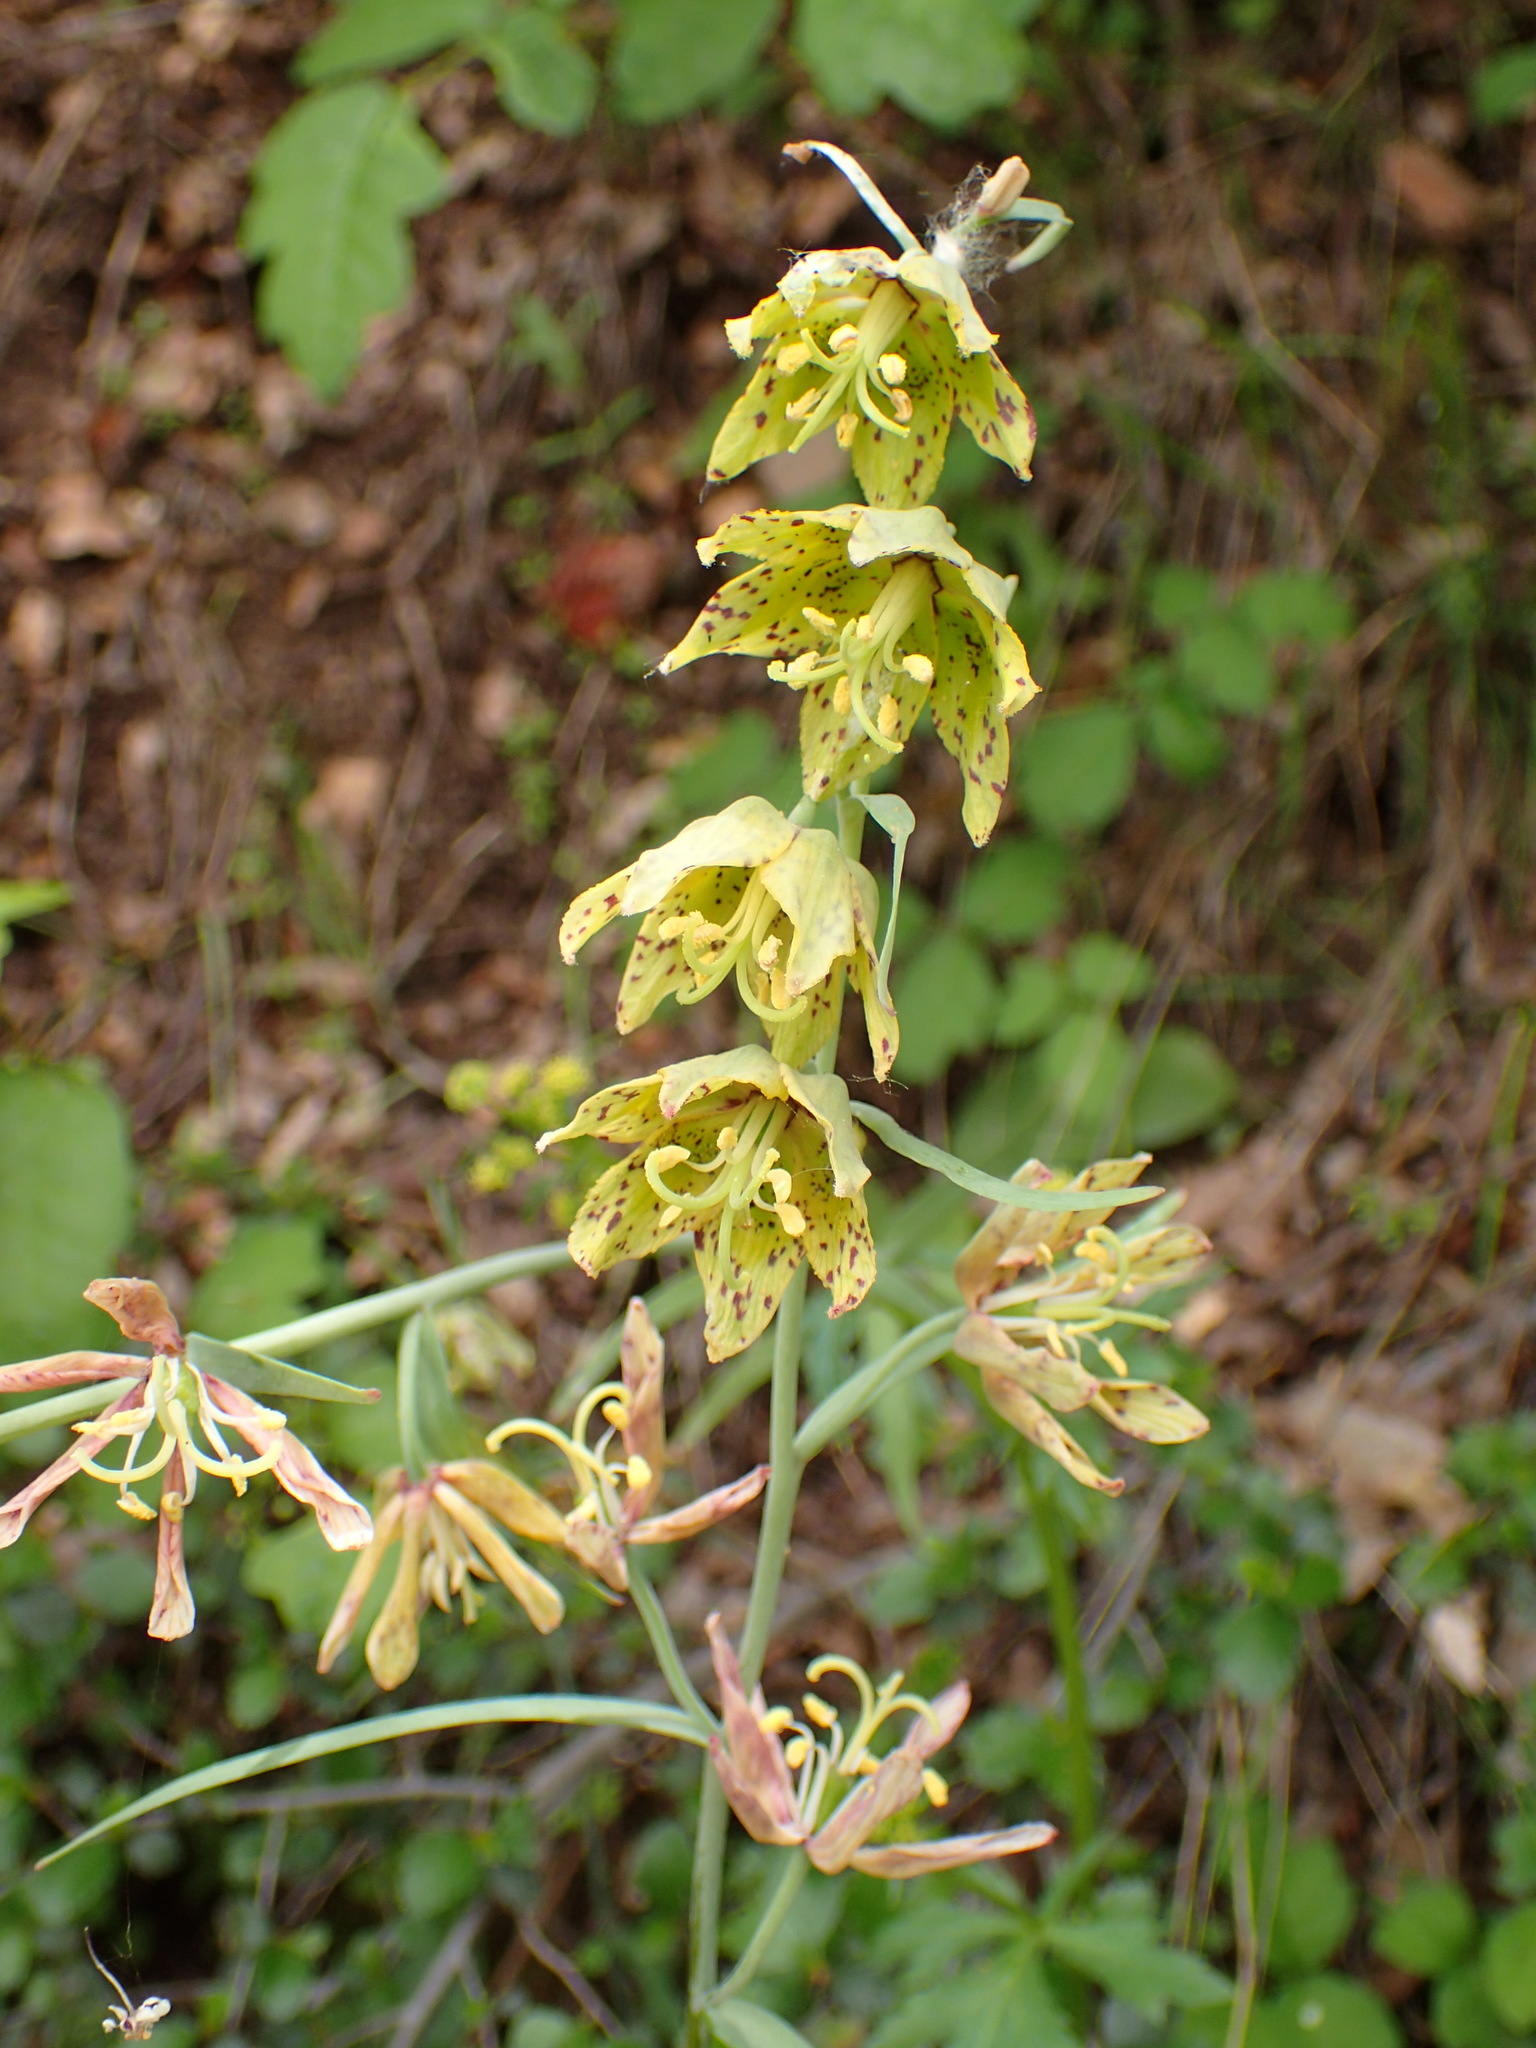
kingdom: Plantae
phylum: Tracheophyta
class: Liliopsida
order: Liliales
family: Liliaceae
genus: Fritillaria
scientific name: Fritillaria ojaiensis
